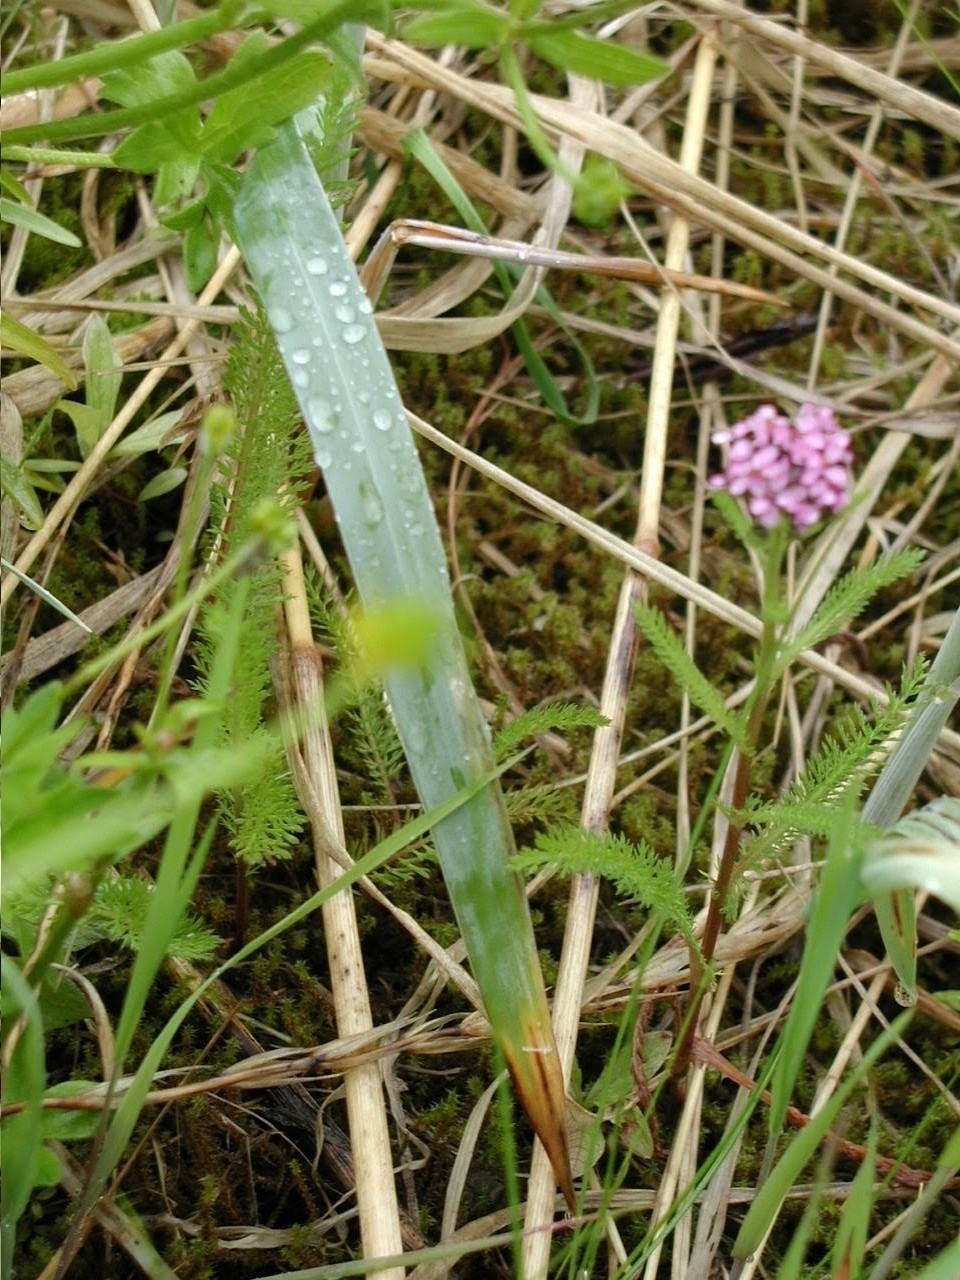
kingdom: Plantae
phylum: Tracheophyta
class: Magnoliopsida
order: Asterales
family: Asteraceae
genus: Achillea
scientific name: Achillea millefolium
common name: Yarrow
